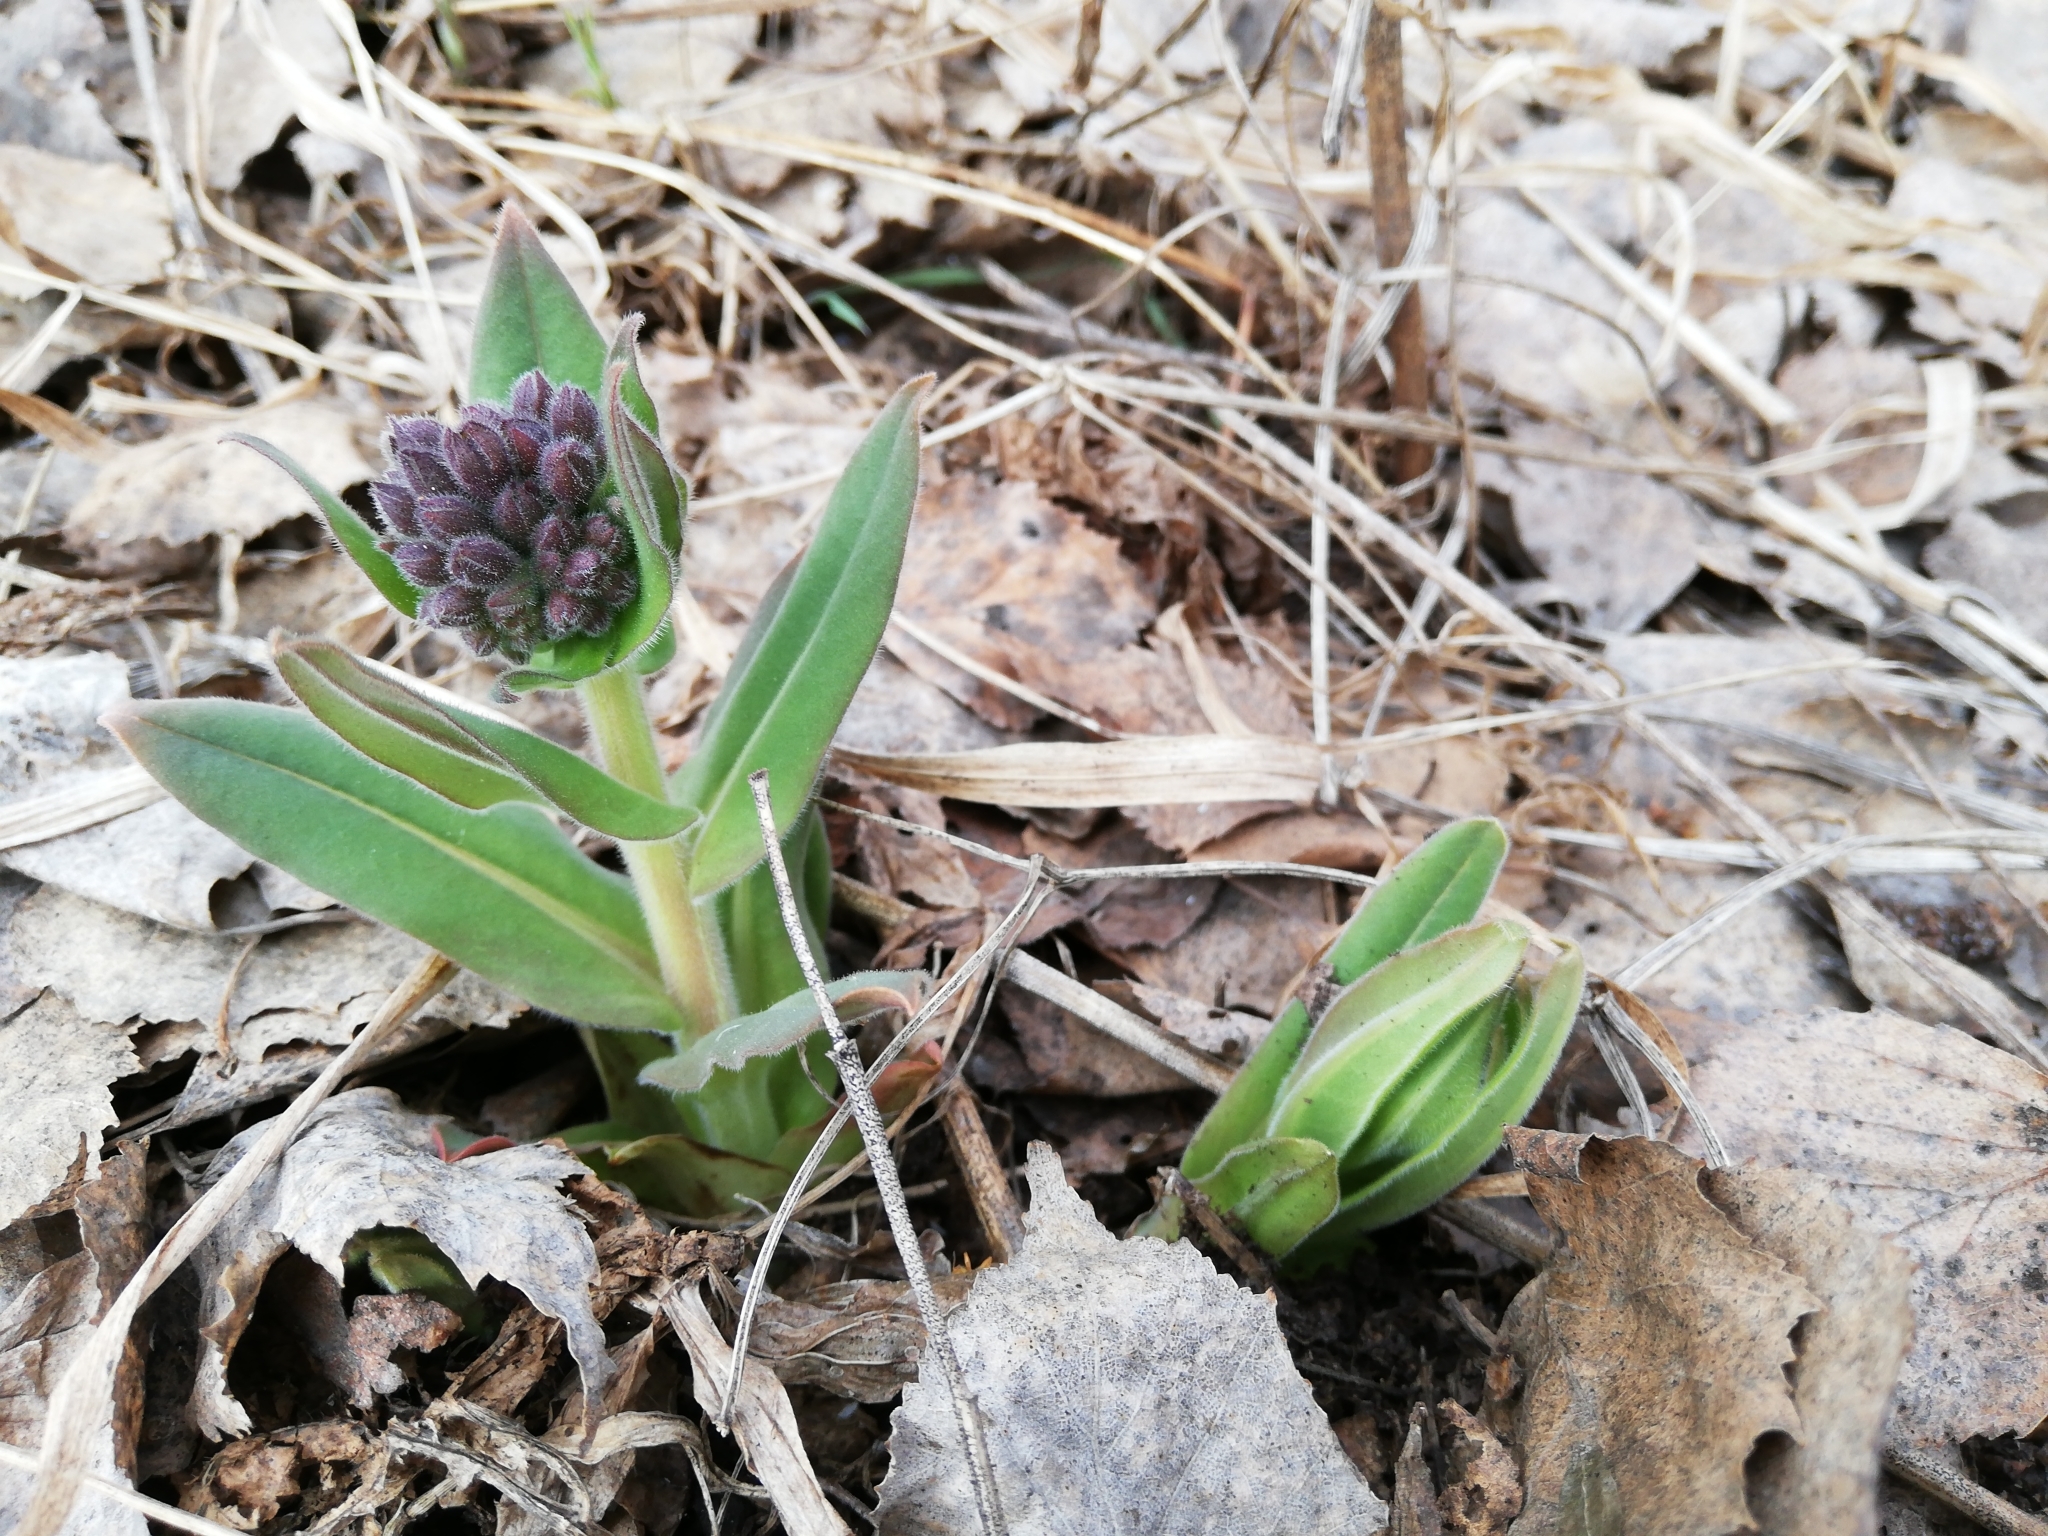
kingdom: Plantae
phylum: Tracheophyta
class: Magnoliopsida
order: Boraginales
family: Boraginaceae
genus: Pulmonaria
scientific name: Pulmonaria mollis
